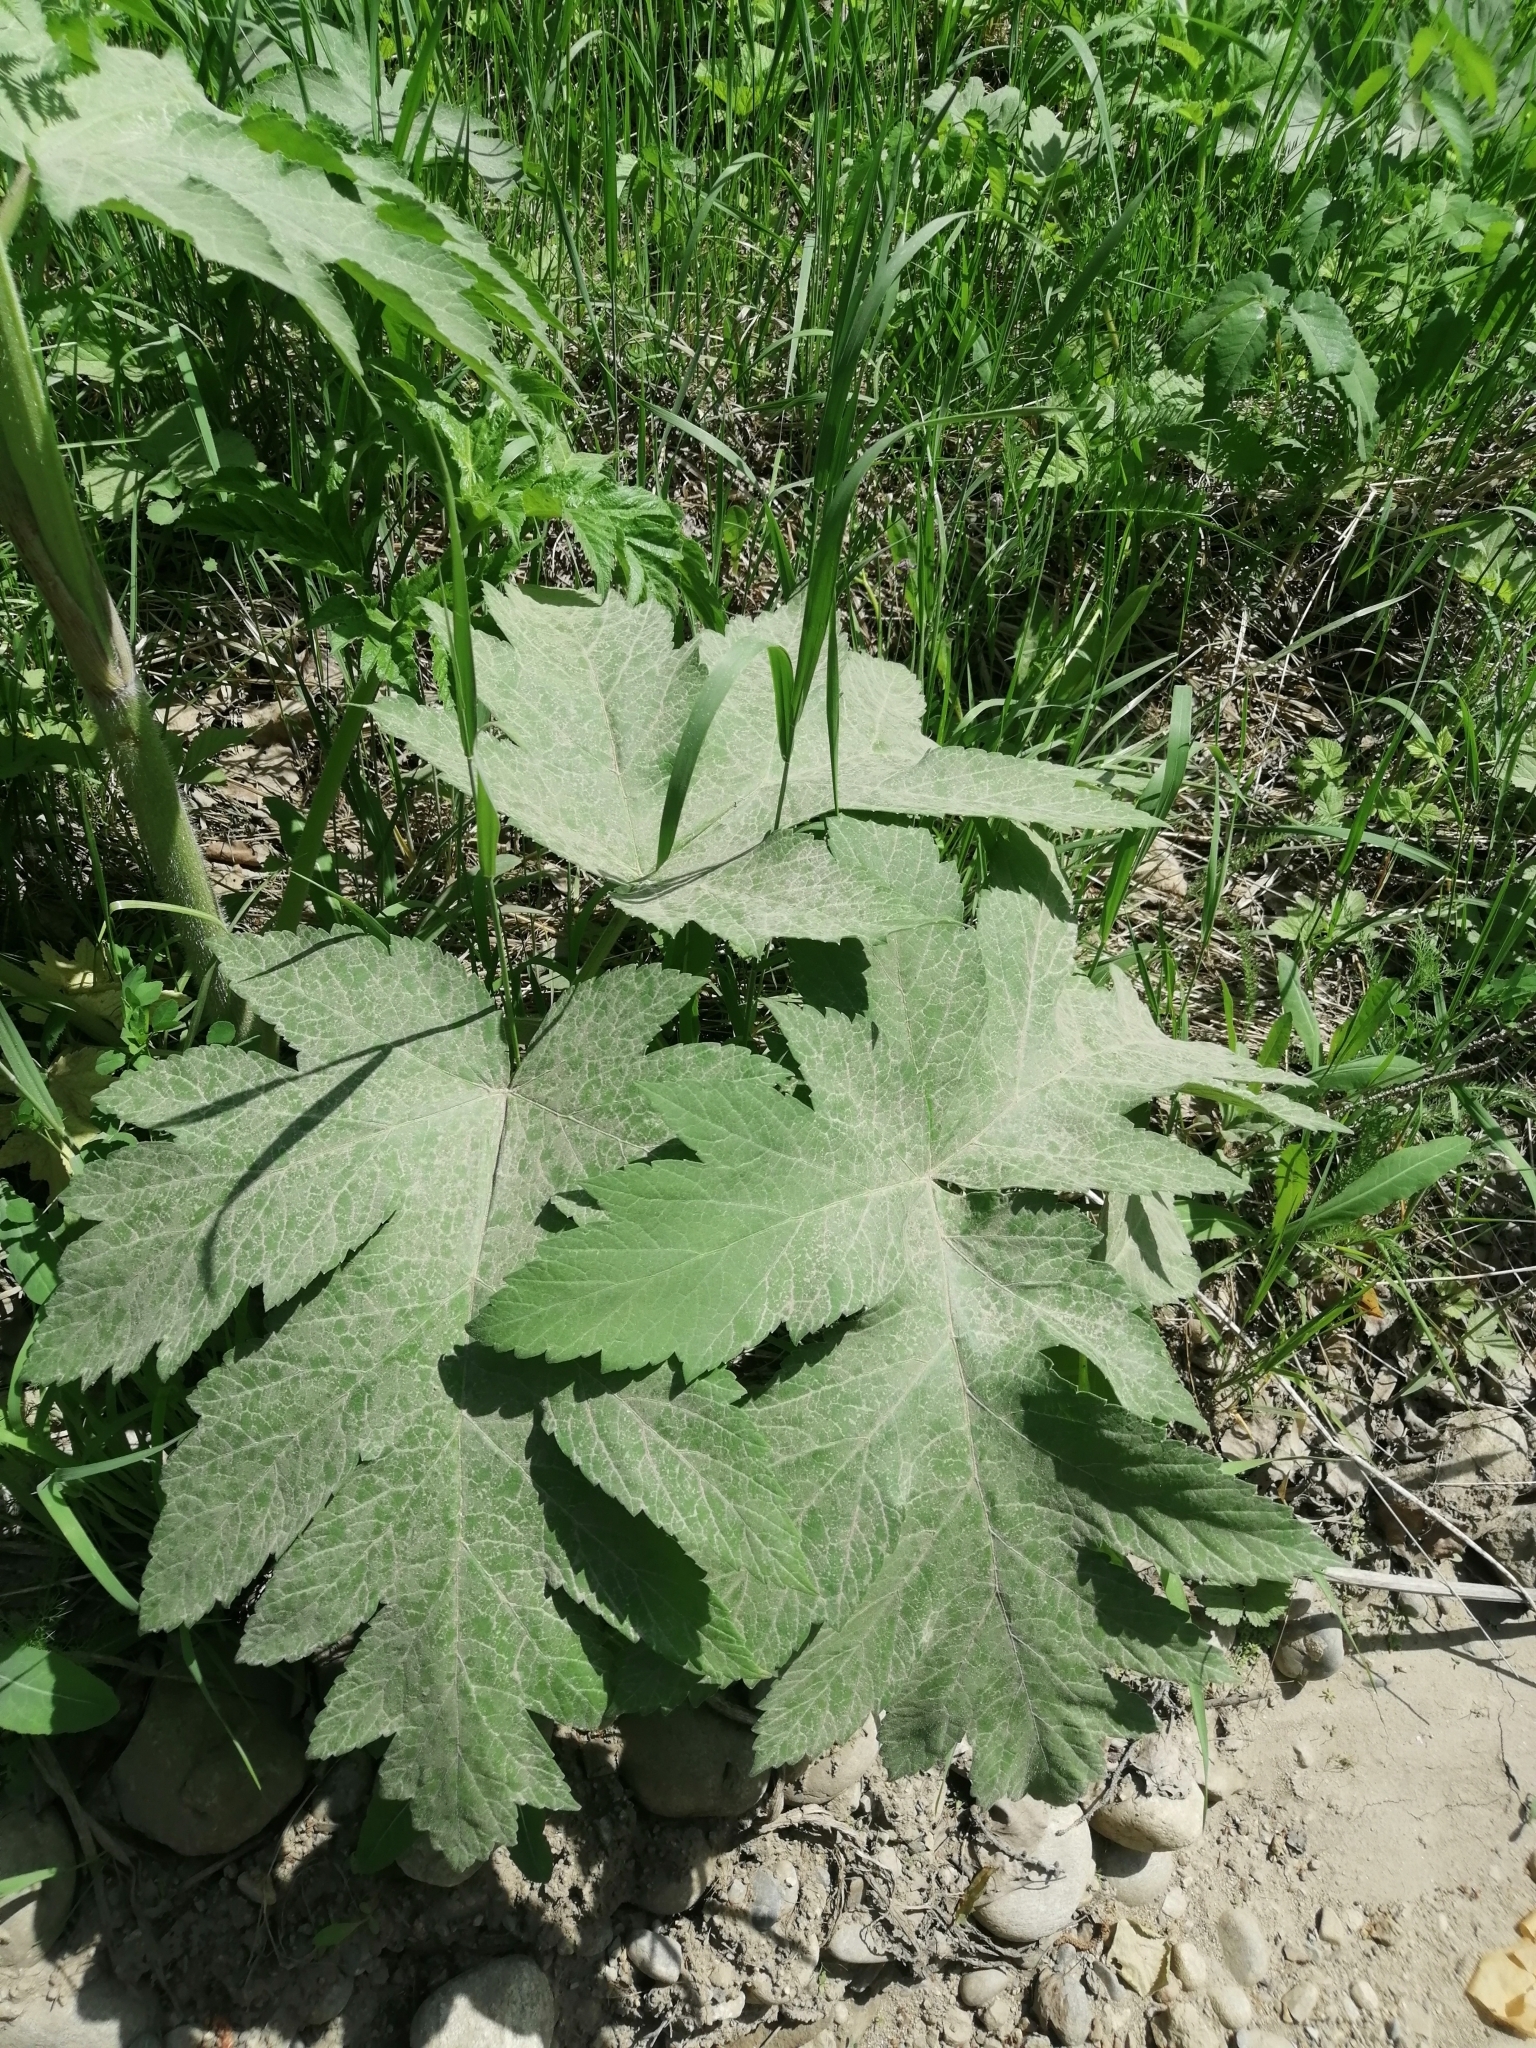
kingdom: Plantae
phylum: Tracheophyta
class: Magnoliopsida
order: Apiales
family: Apiaceae
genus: Heracleum
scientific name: Heracleum dissectum
